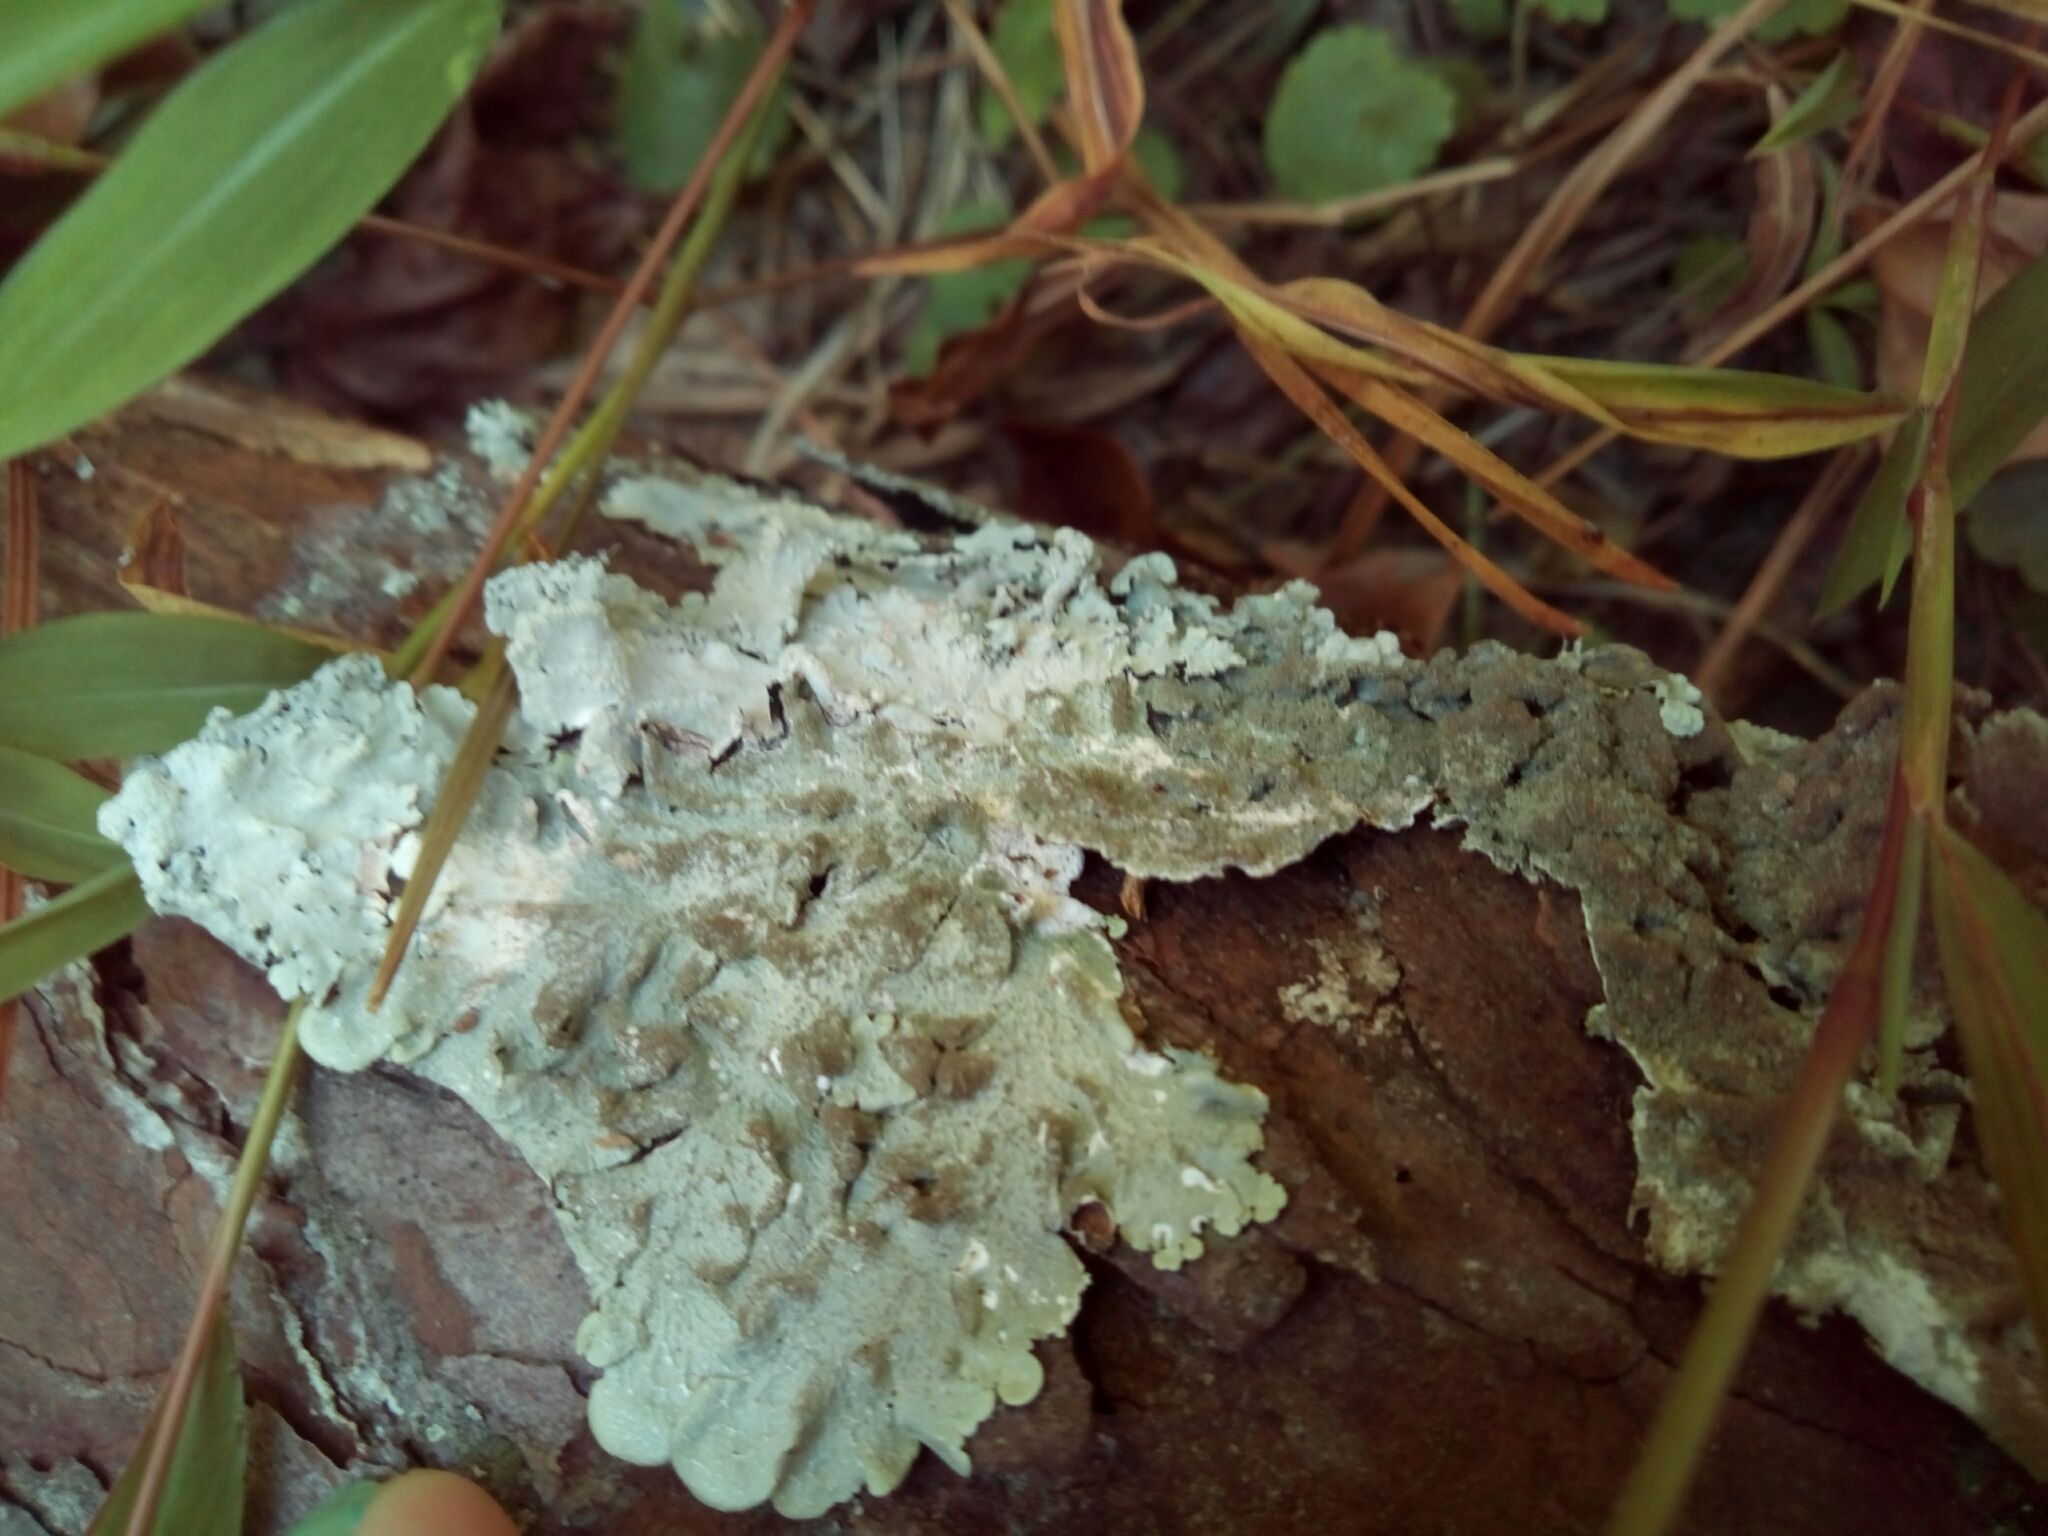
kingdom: Fungi
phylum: Ascomycota
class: Lecanoromycetes
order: Lecanorales
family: Parmeliaceae
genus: Canoparmelia
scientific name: Canoparmelia caroliniana
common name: Carolina shield lichen
